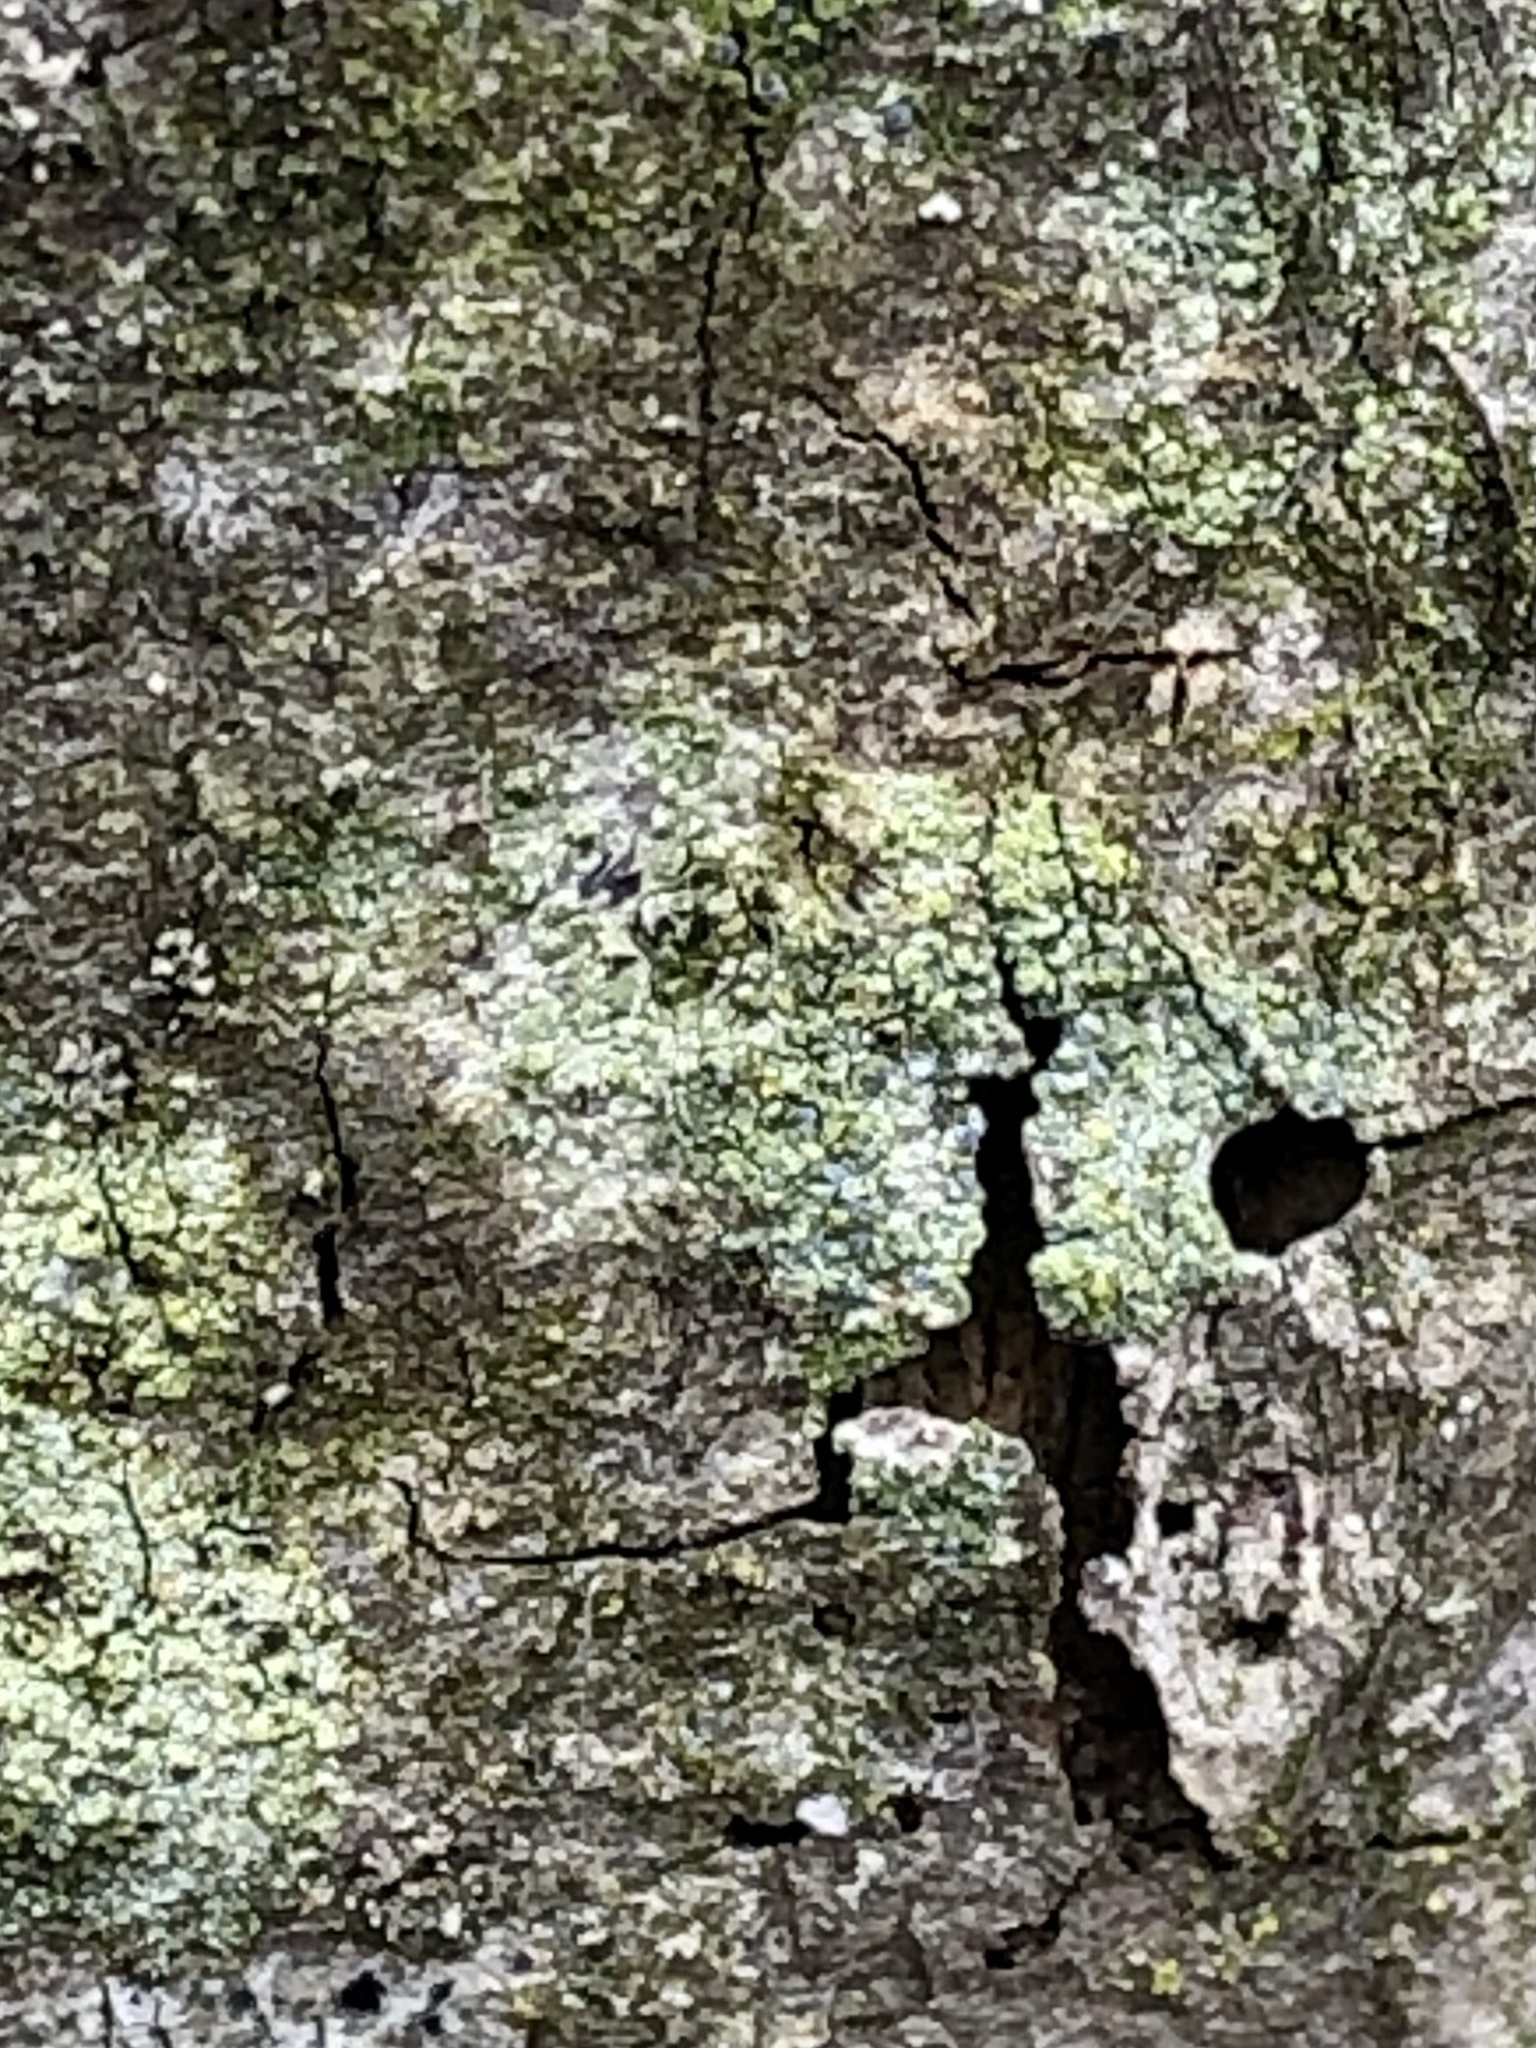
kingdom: Fungi
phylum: Ascomycota
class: Arthoniomycetes
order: Arthoniales
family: Chrysotrichaceae
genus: Chrysothrix
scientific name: Chrysothrix caesia
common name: Frosted comma lichen
